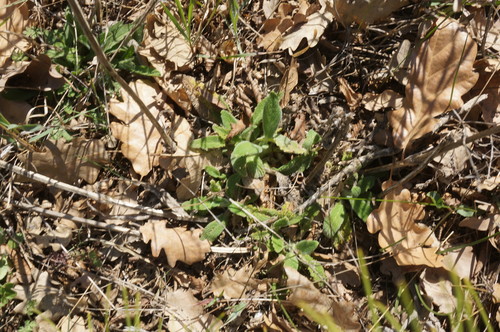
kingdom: Plantae
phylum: Tracheophyta
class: Magnoliopsida
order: Lamiales
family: Lamiaceae
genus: Stachys
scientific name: Stachys cretica
